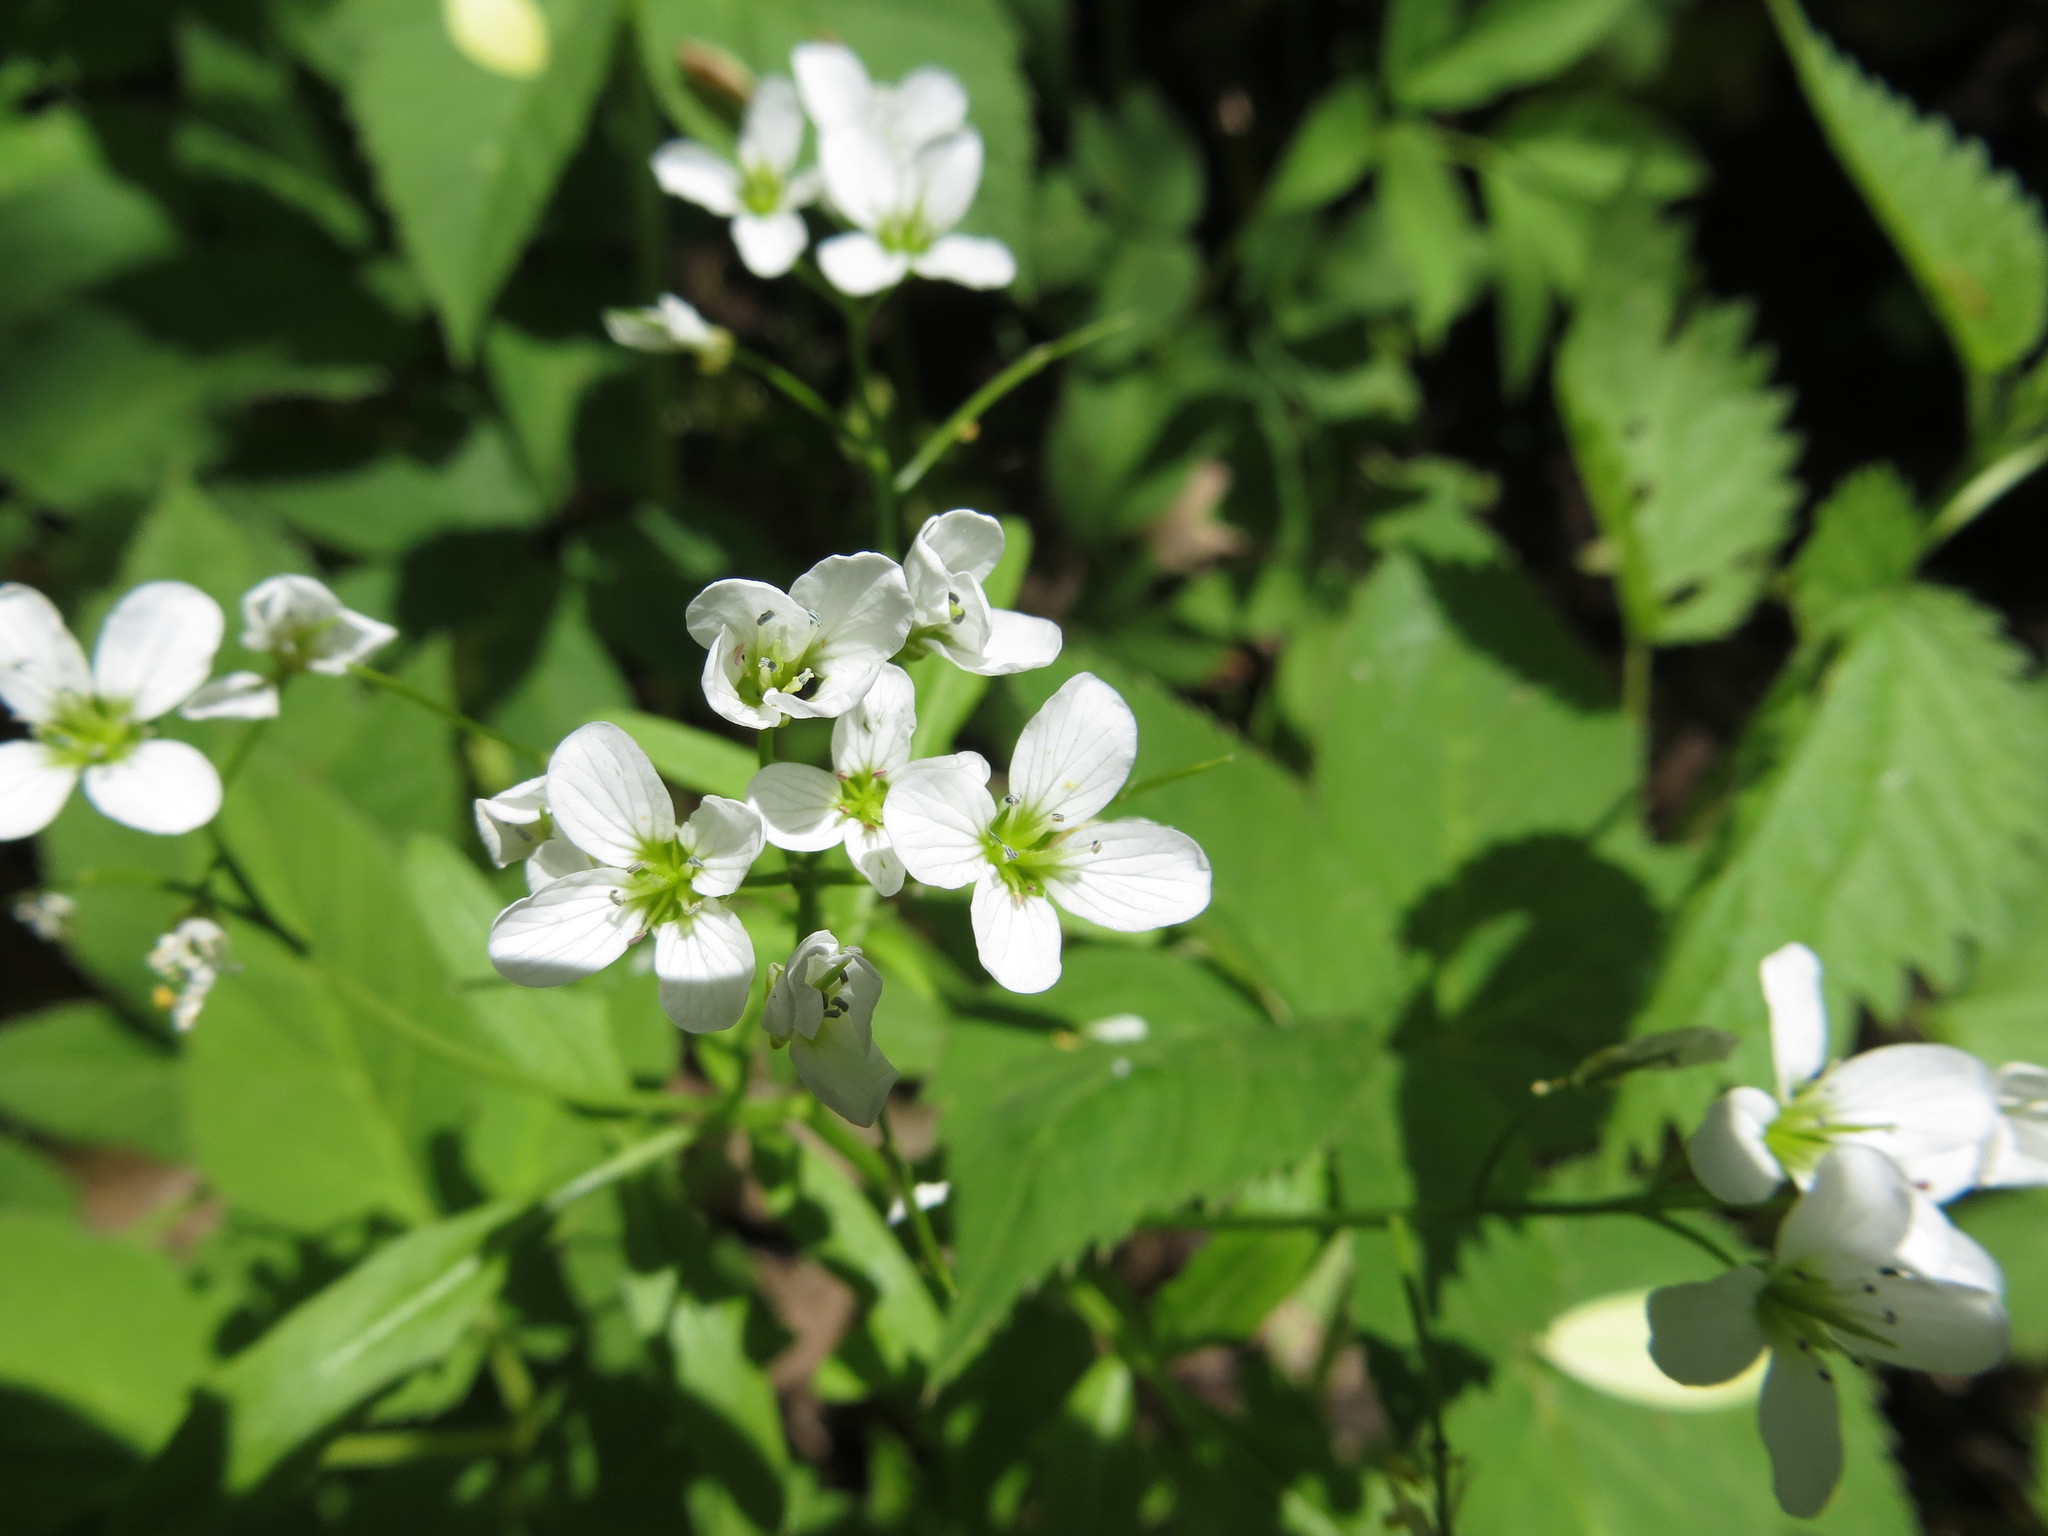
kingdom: Plantae
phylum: Tracheophyta
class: Magnoliopsida
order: Brassicales
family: Brassicaceae
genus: Cardamine
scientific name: Cardamine amara
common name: Large bitter-cress
